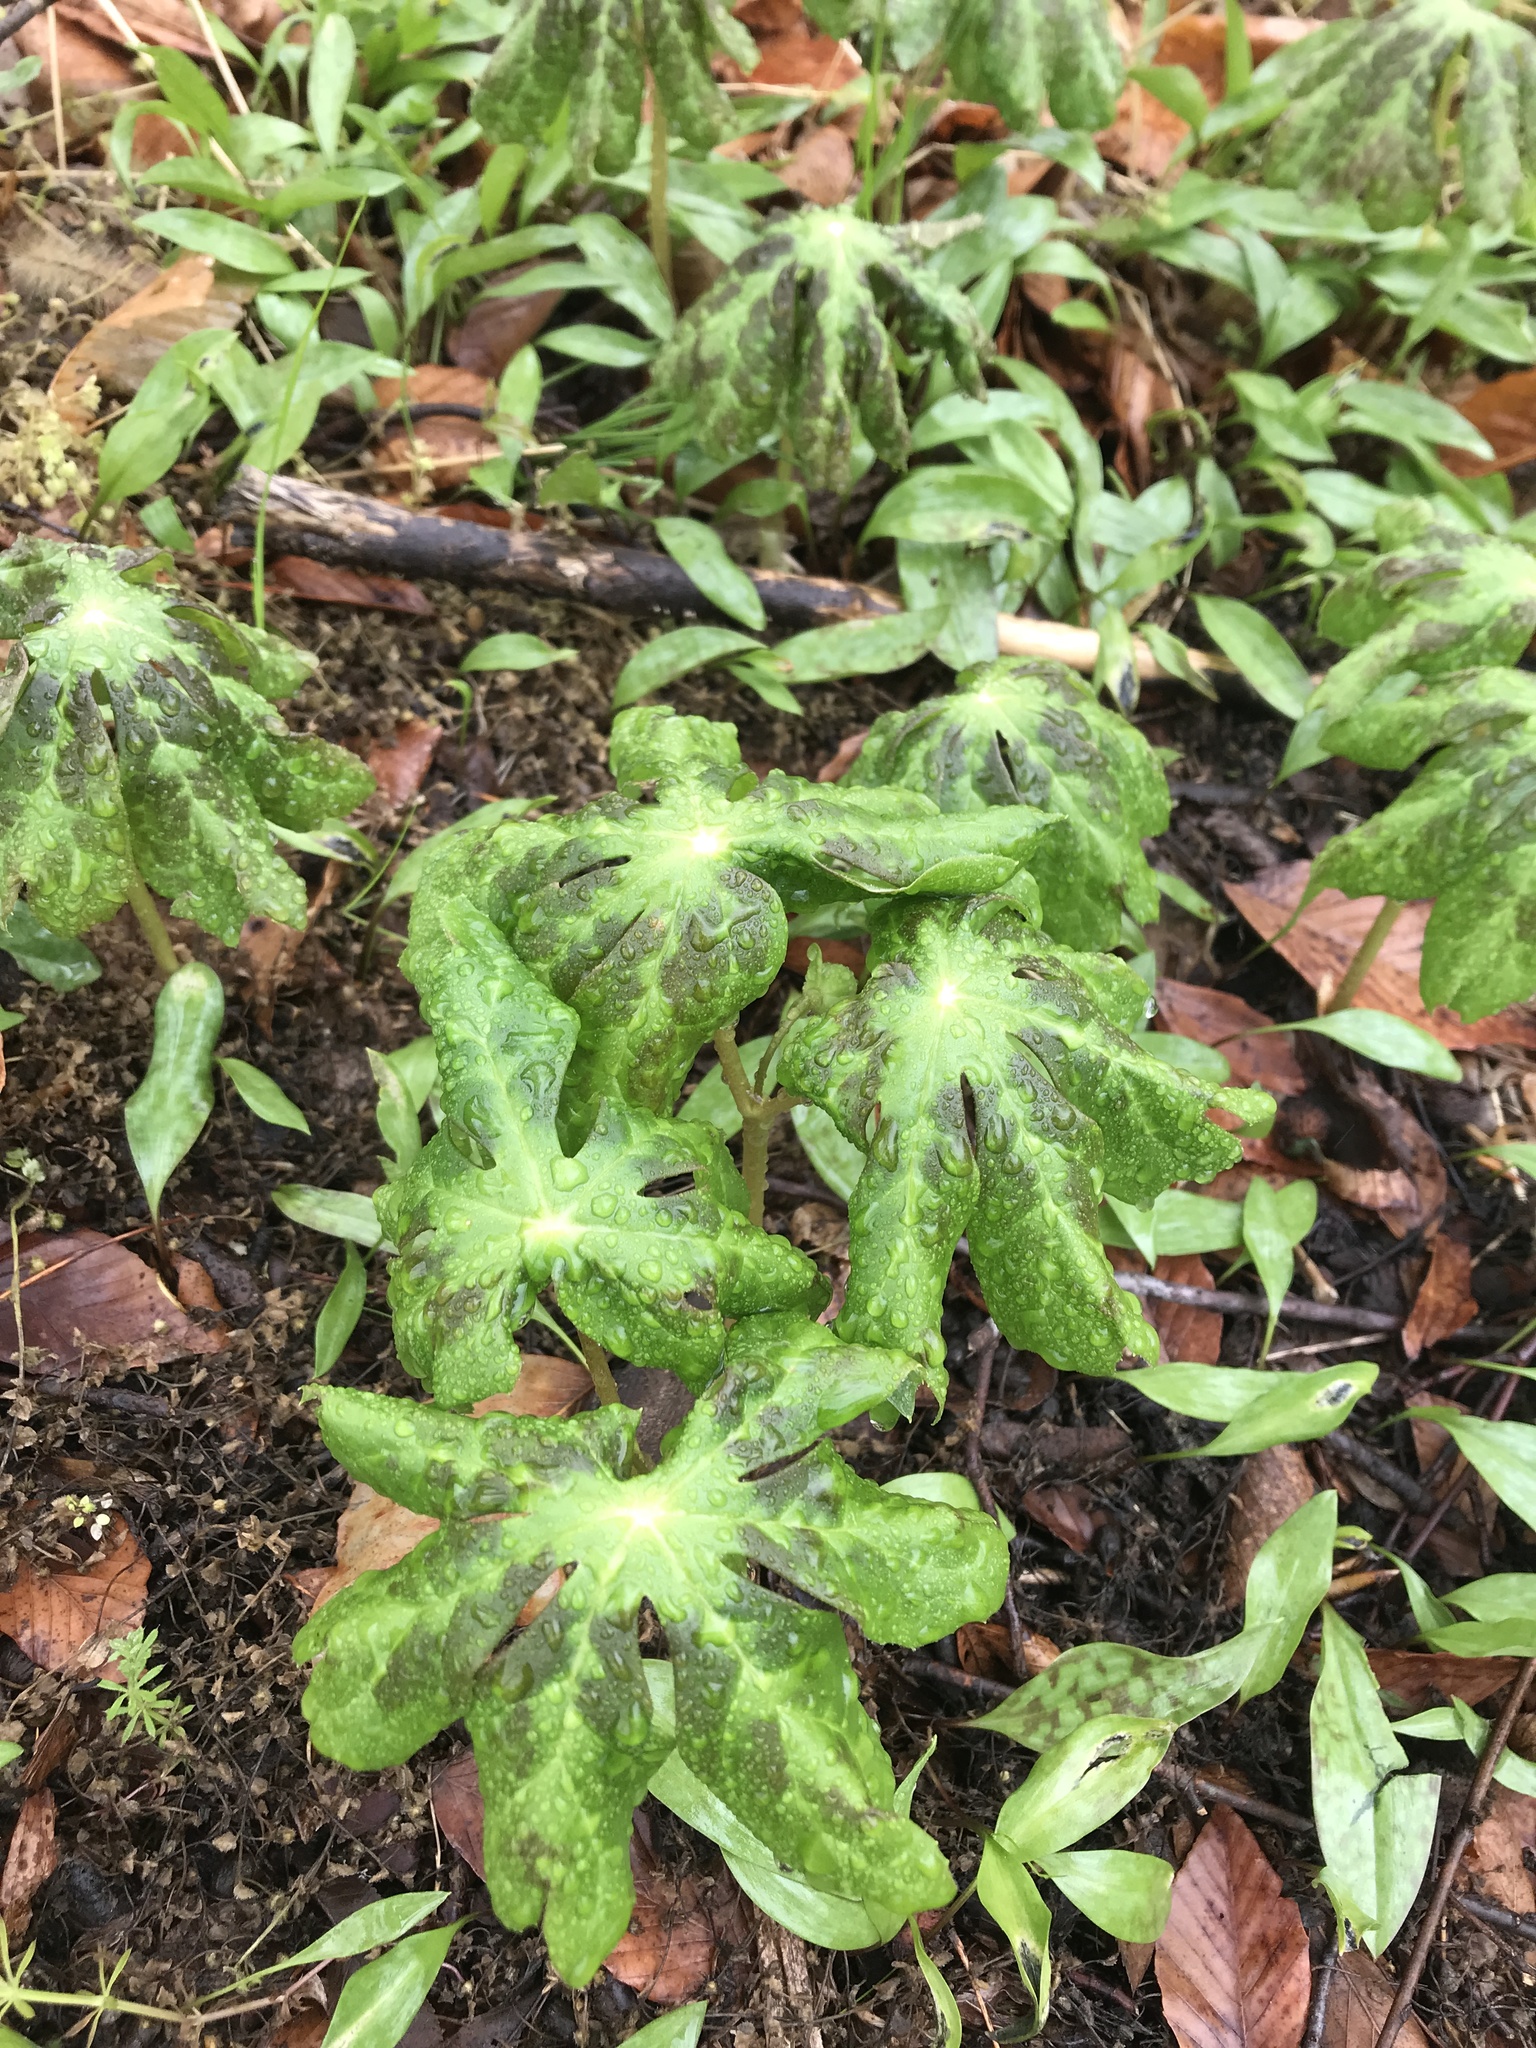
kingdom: Plantae
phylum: Tracheophyta
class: Magnoliopsida
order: Ranunculales
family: Berberidaceae
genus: Podophyllum
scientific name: Podophyllum peltatum
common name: Wild mandrake
